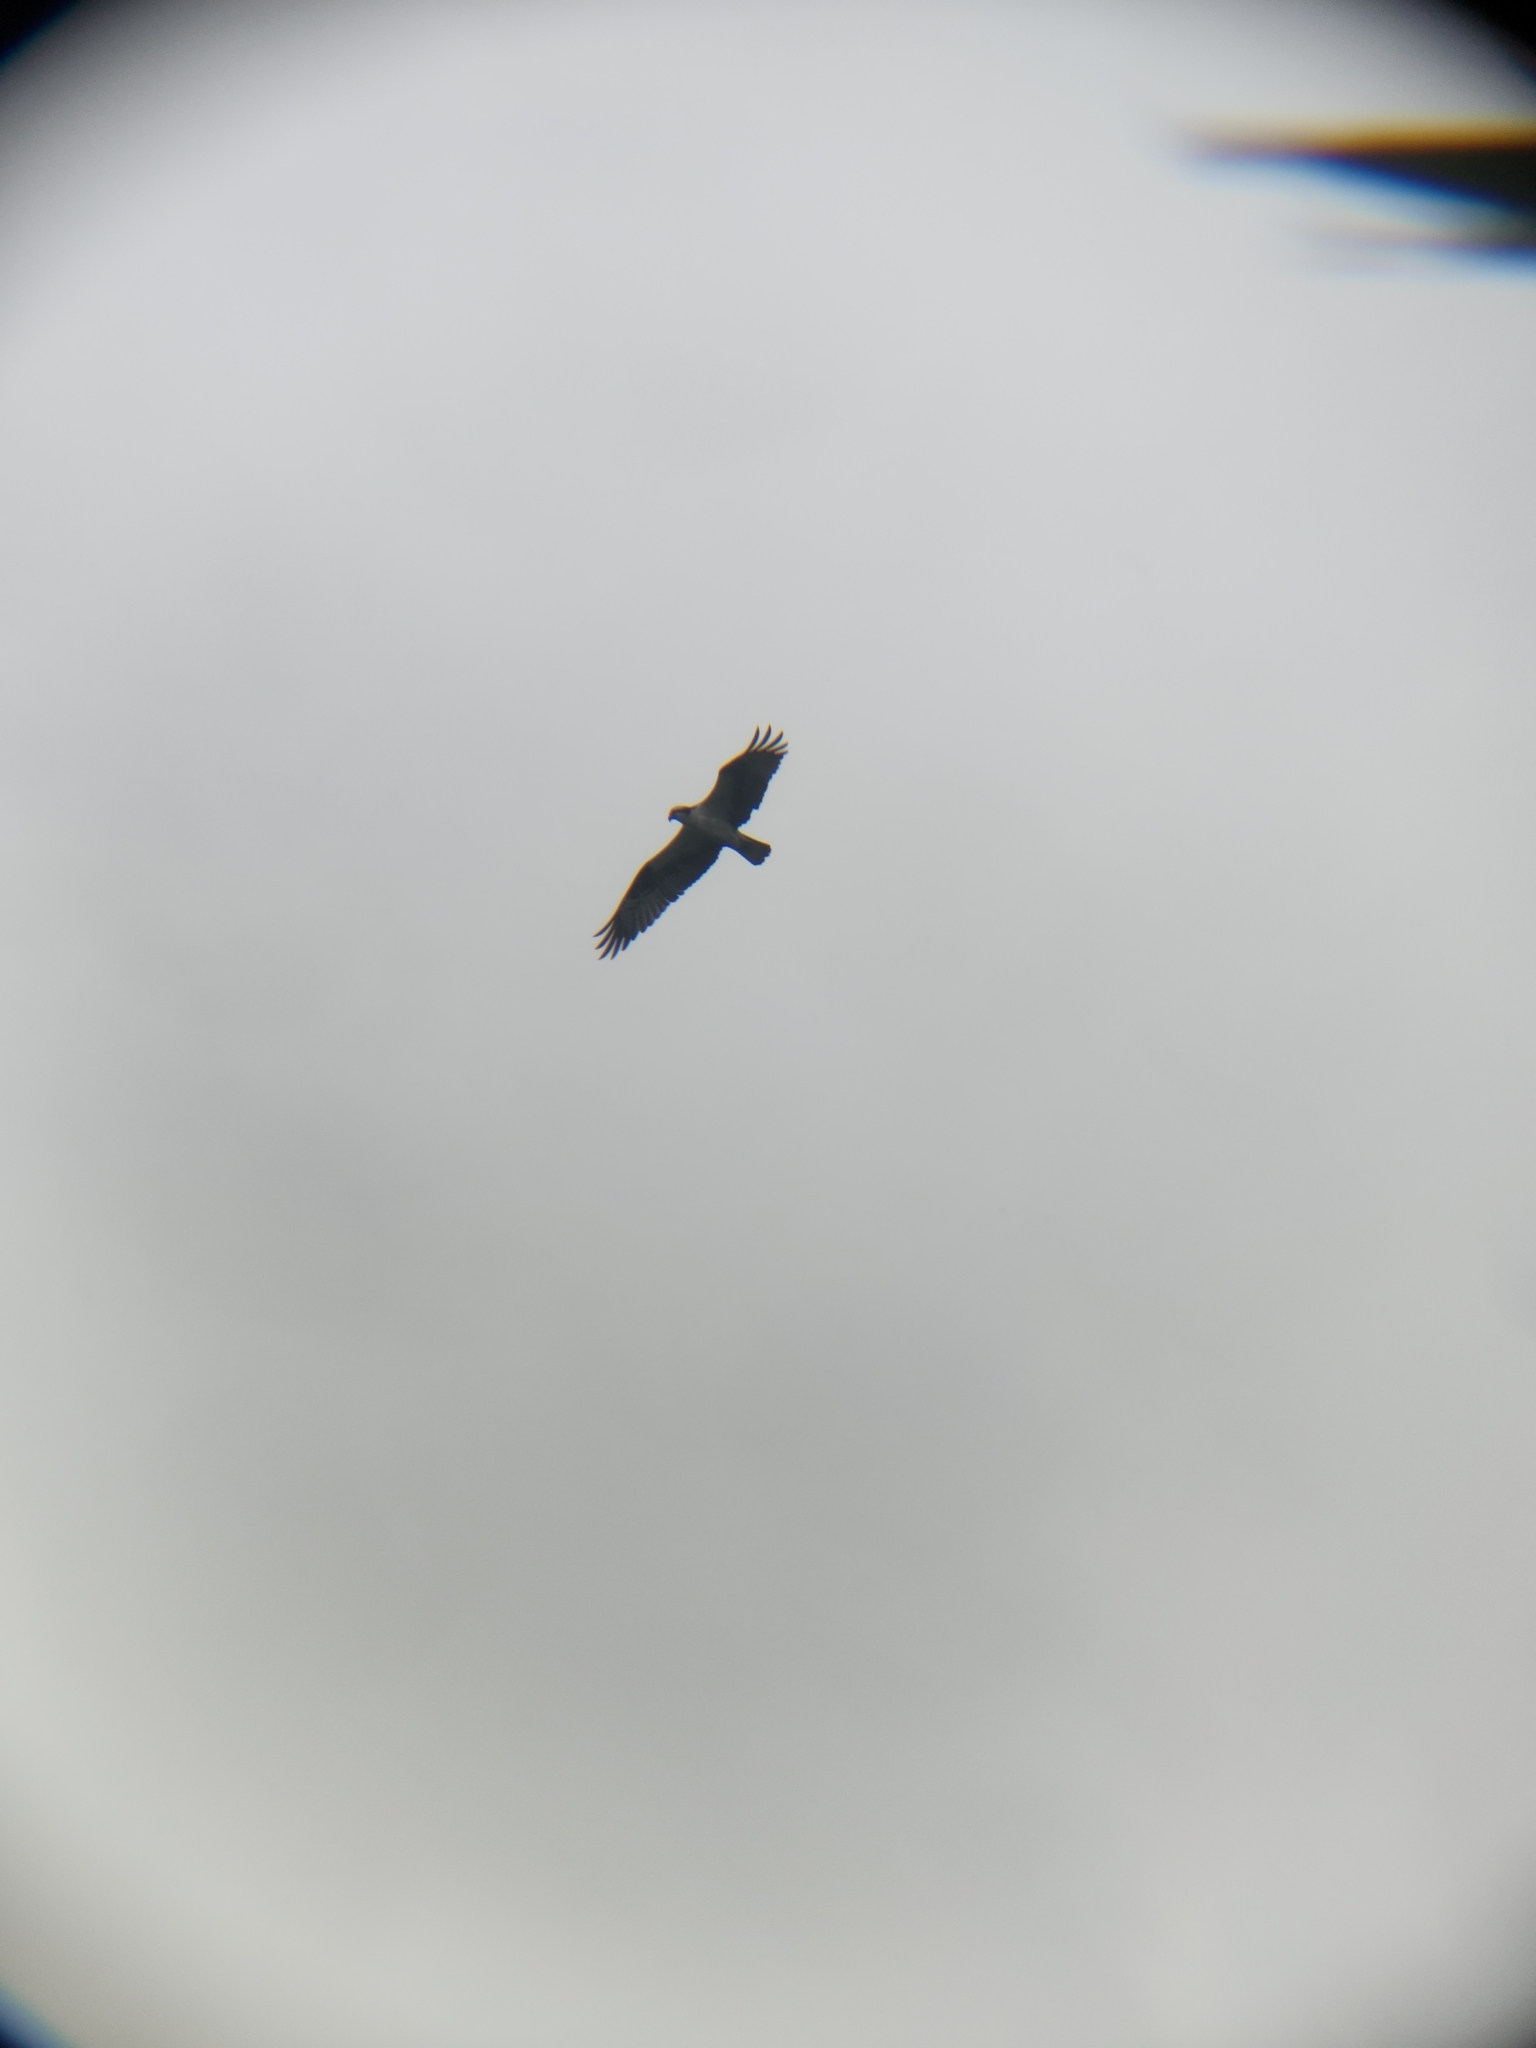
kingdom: Animalia
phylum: Chordata
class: Aves
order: Accipitriformes
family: Pandionidae
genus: Pandion
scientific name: Pandion haliaetus
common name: Osprey
